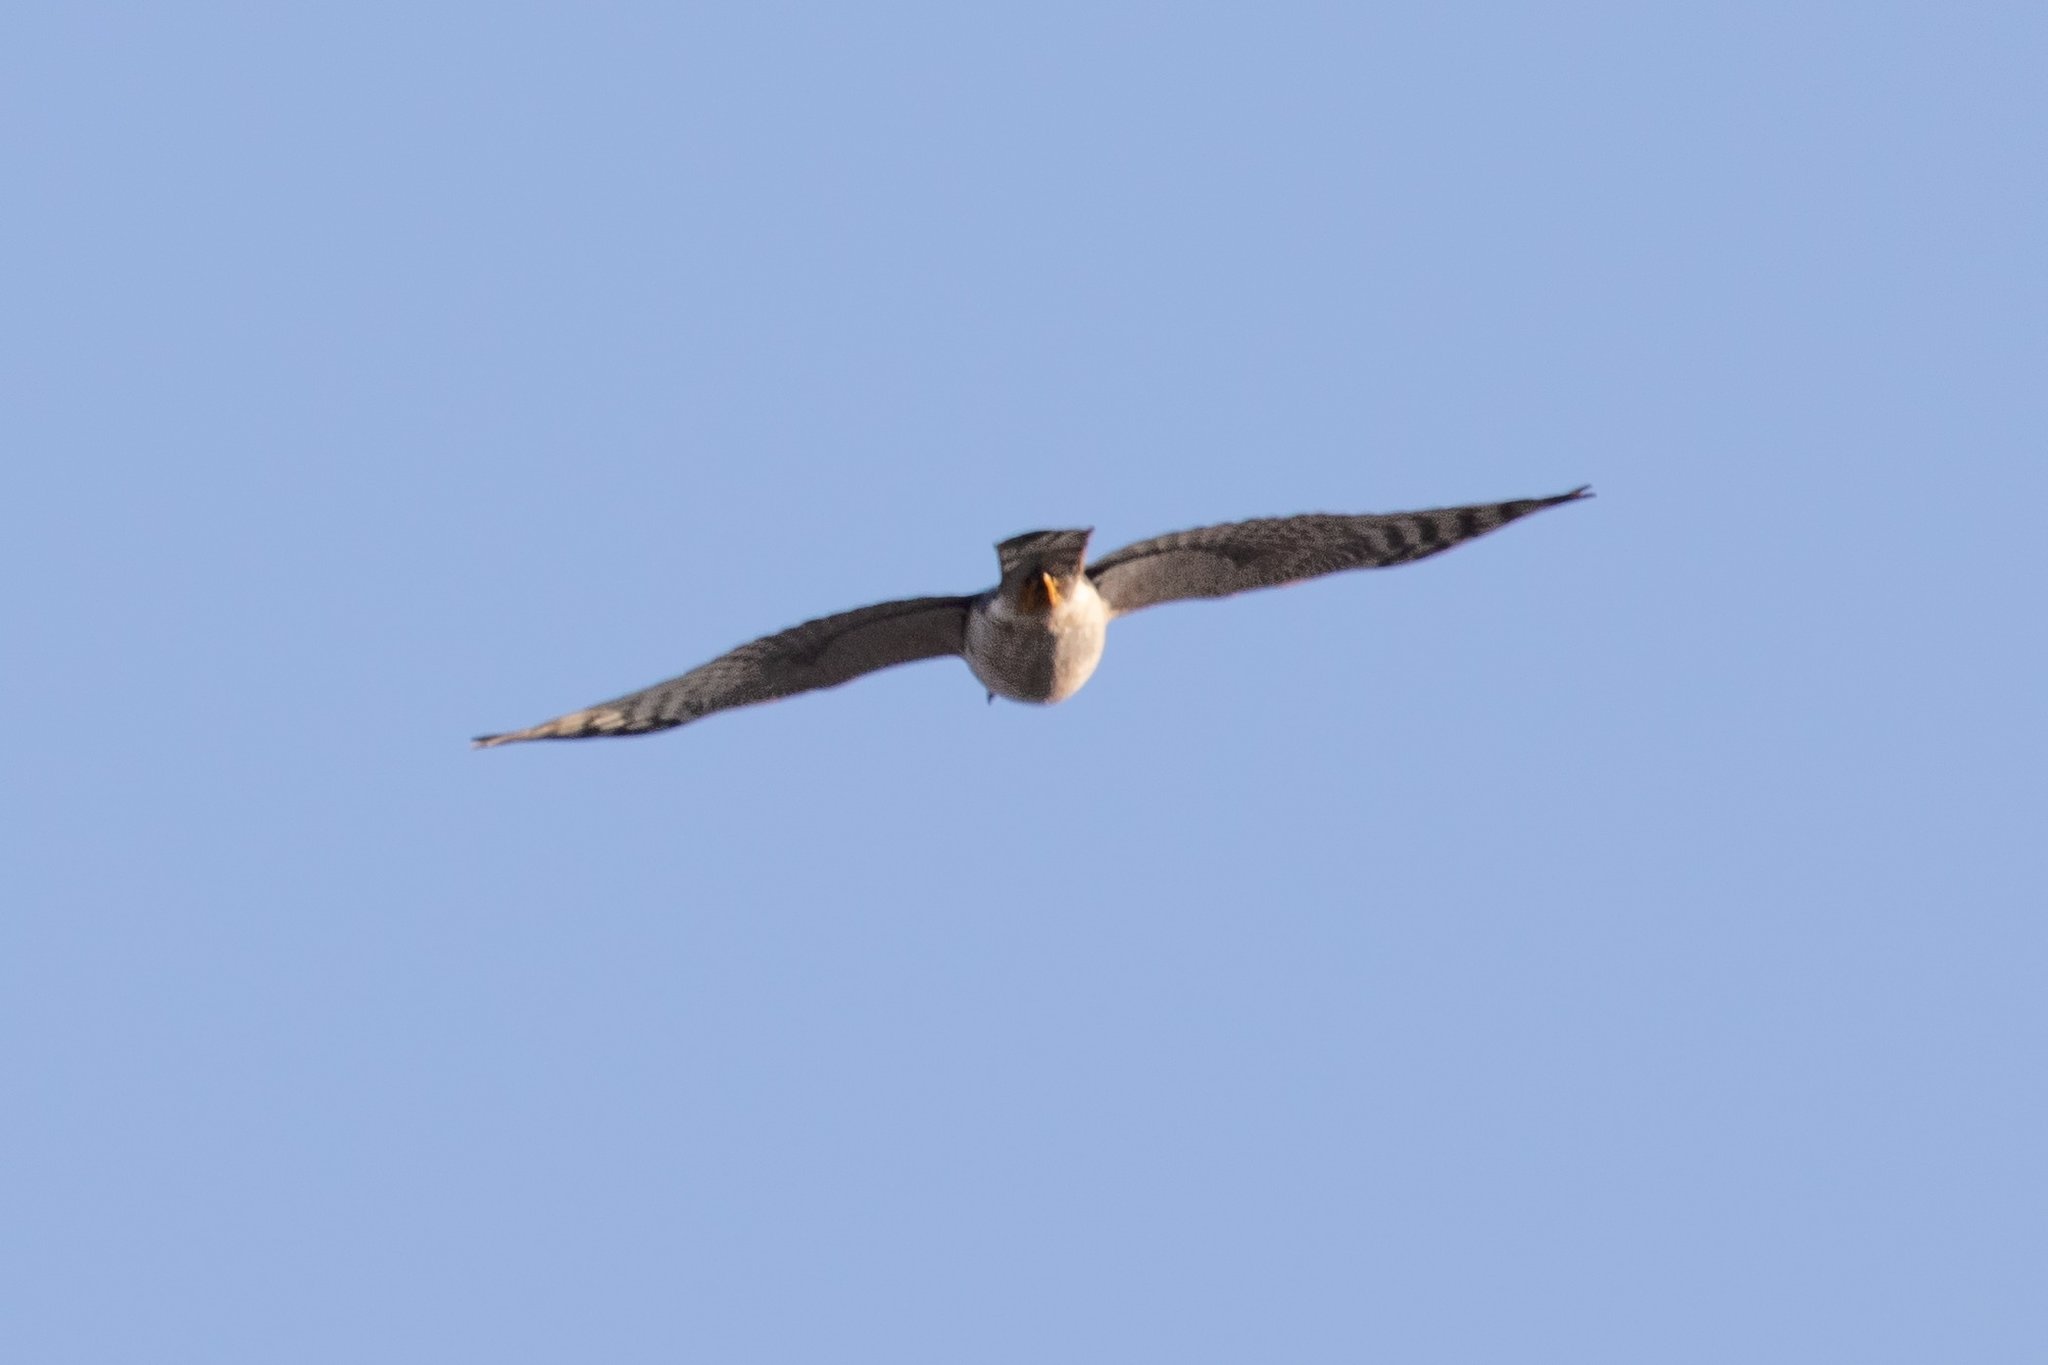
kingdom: Animalia
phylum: Chordata
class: Aves
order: Accipitriformes
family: Accipitridae
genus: Accipiter
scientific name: Accipiter nisus
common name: Eurasian sparrowhawk
